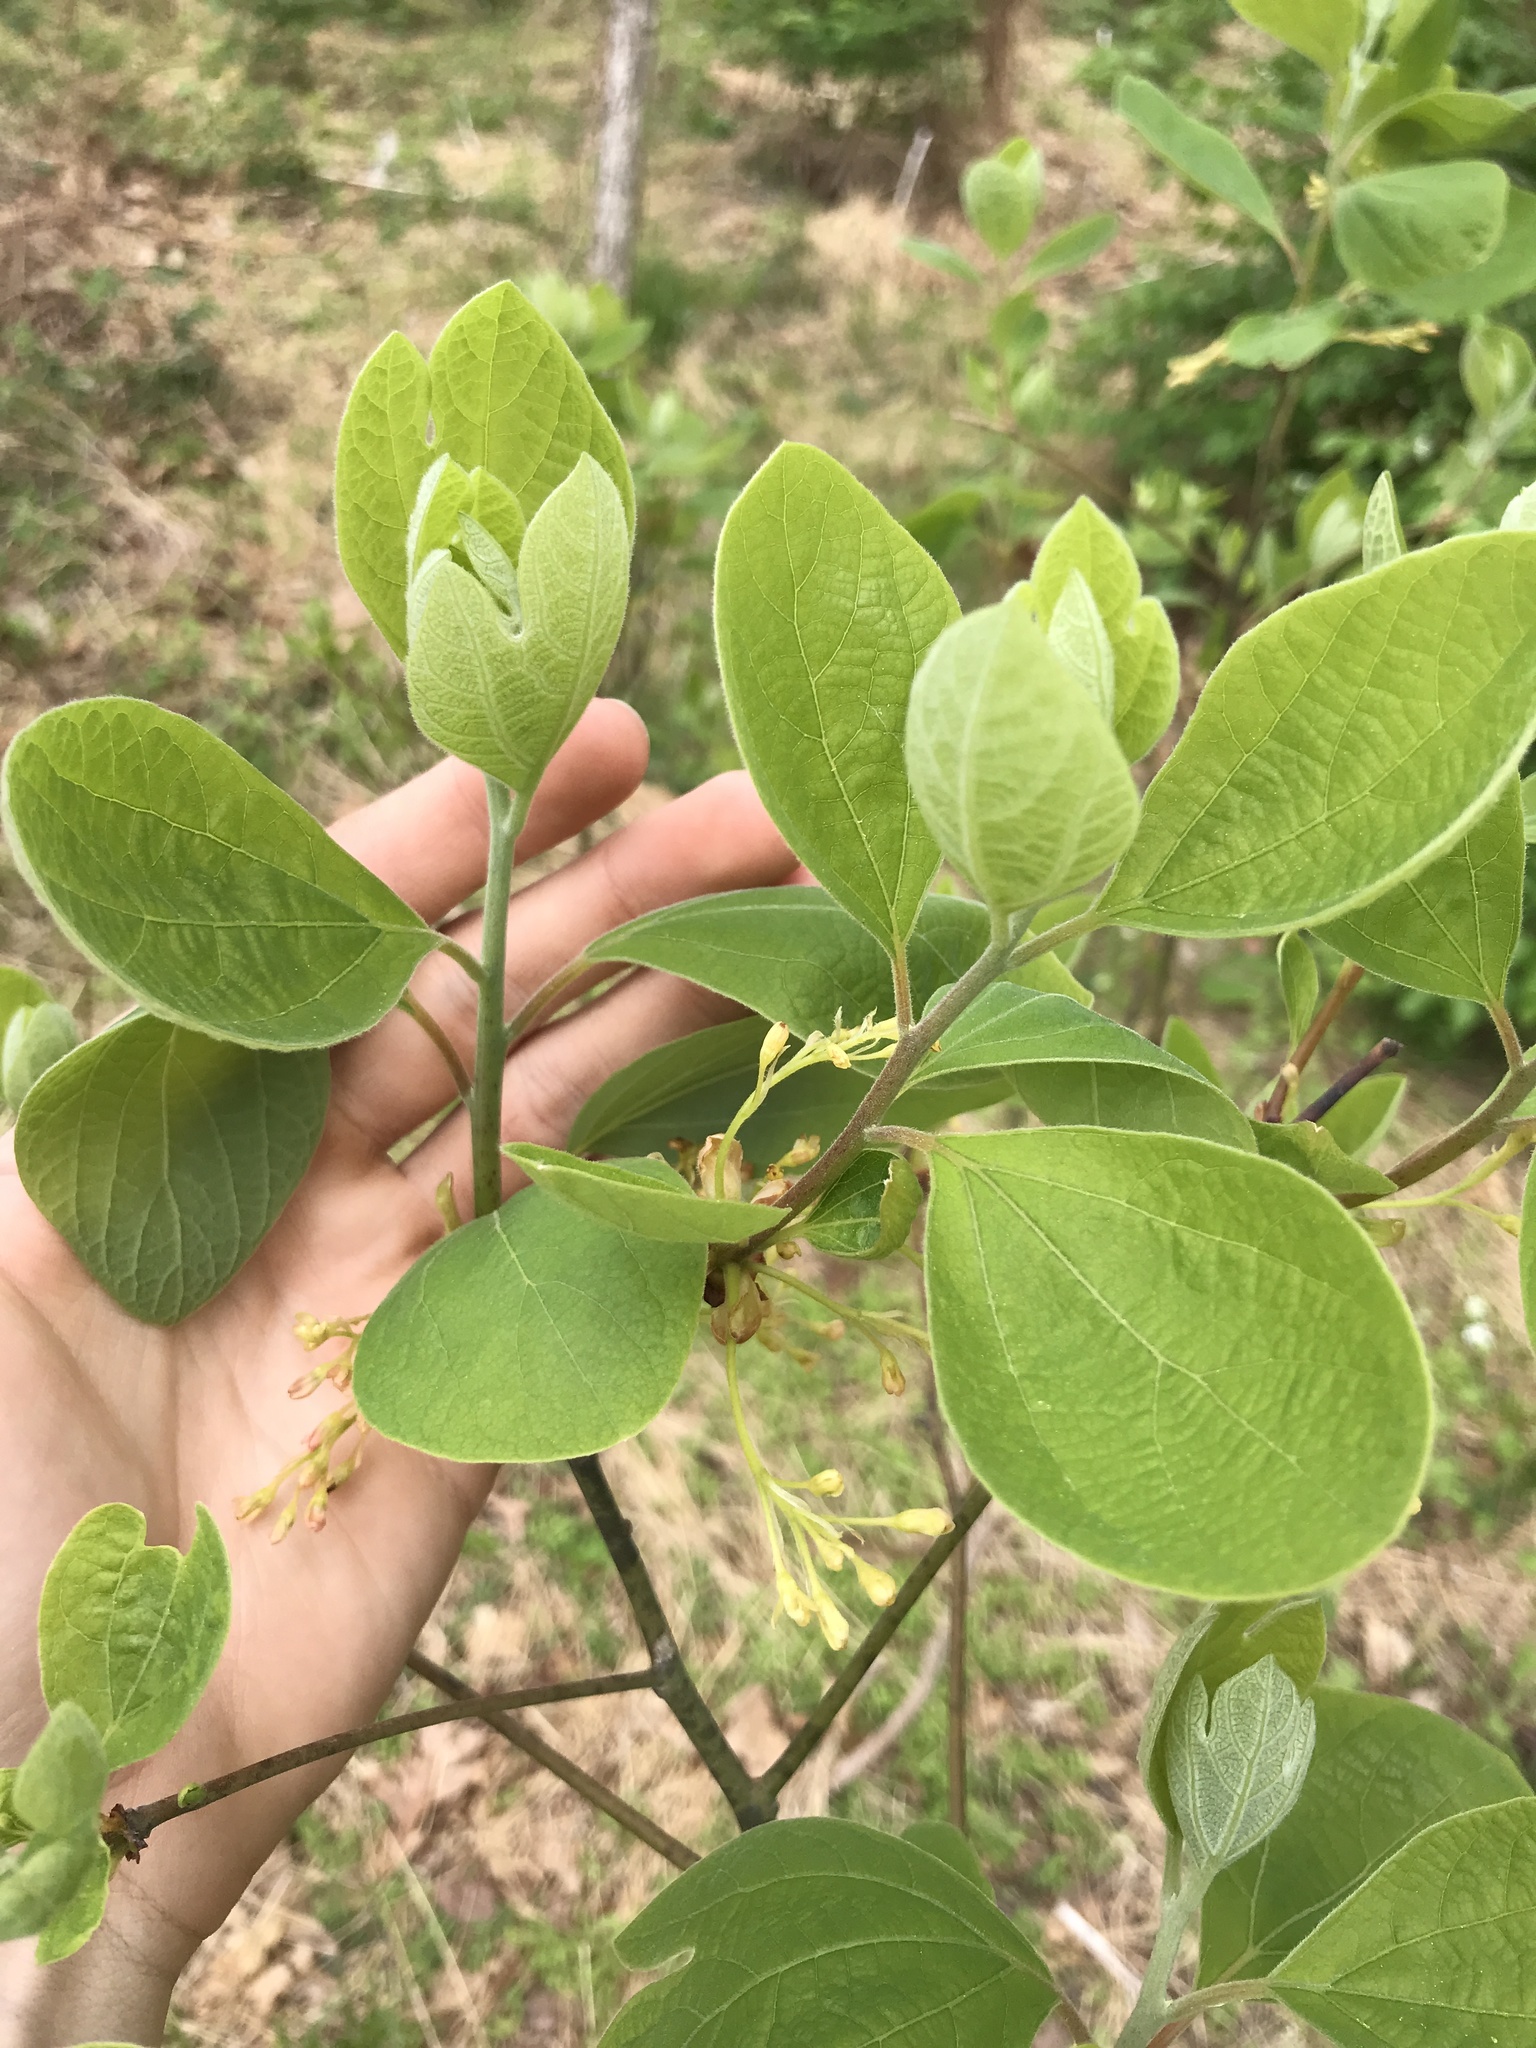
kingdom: Plantae
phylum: Tracheophyta
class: Magnoliopsida
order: Laurales
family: Lauraceae
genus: Sassafras
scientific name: Sassafras albidum
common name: Sassafras
